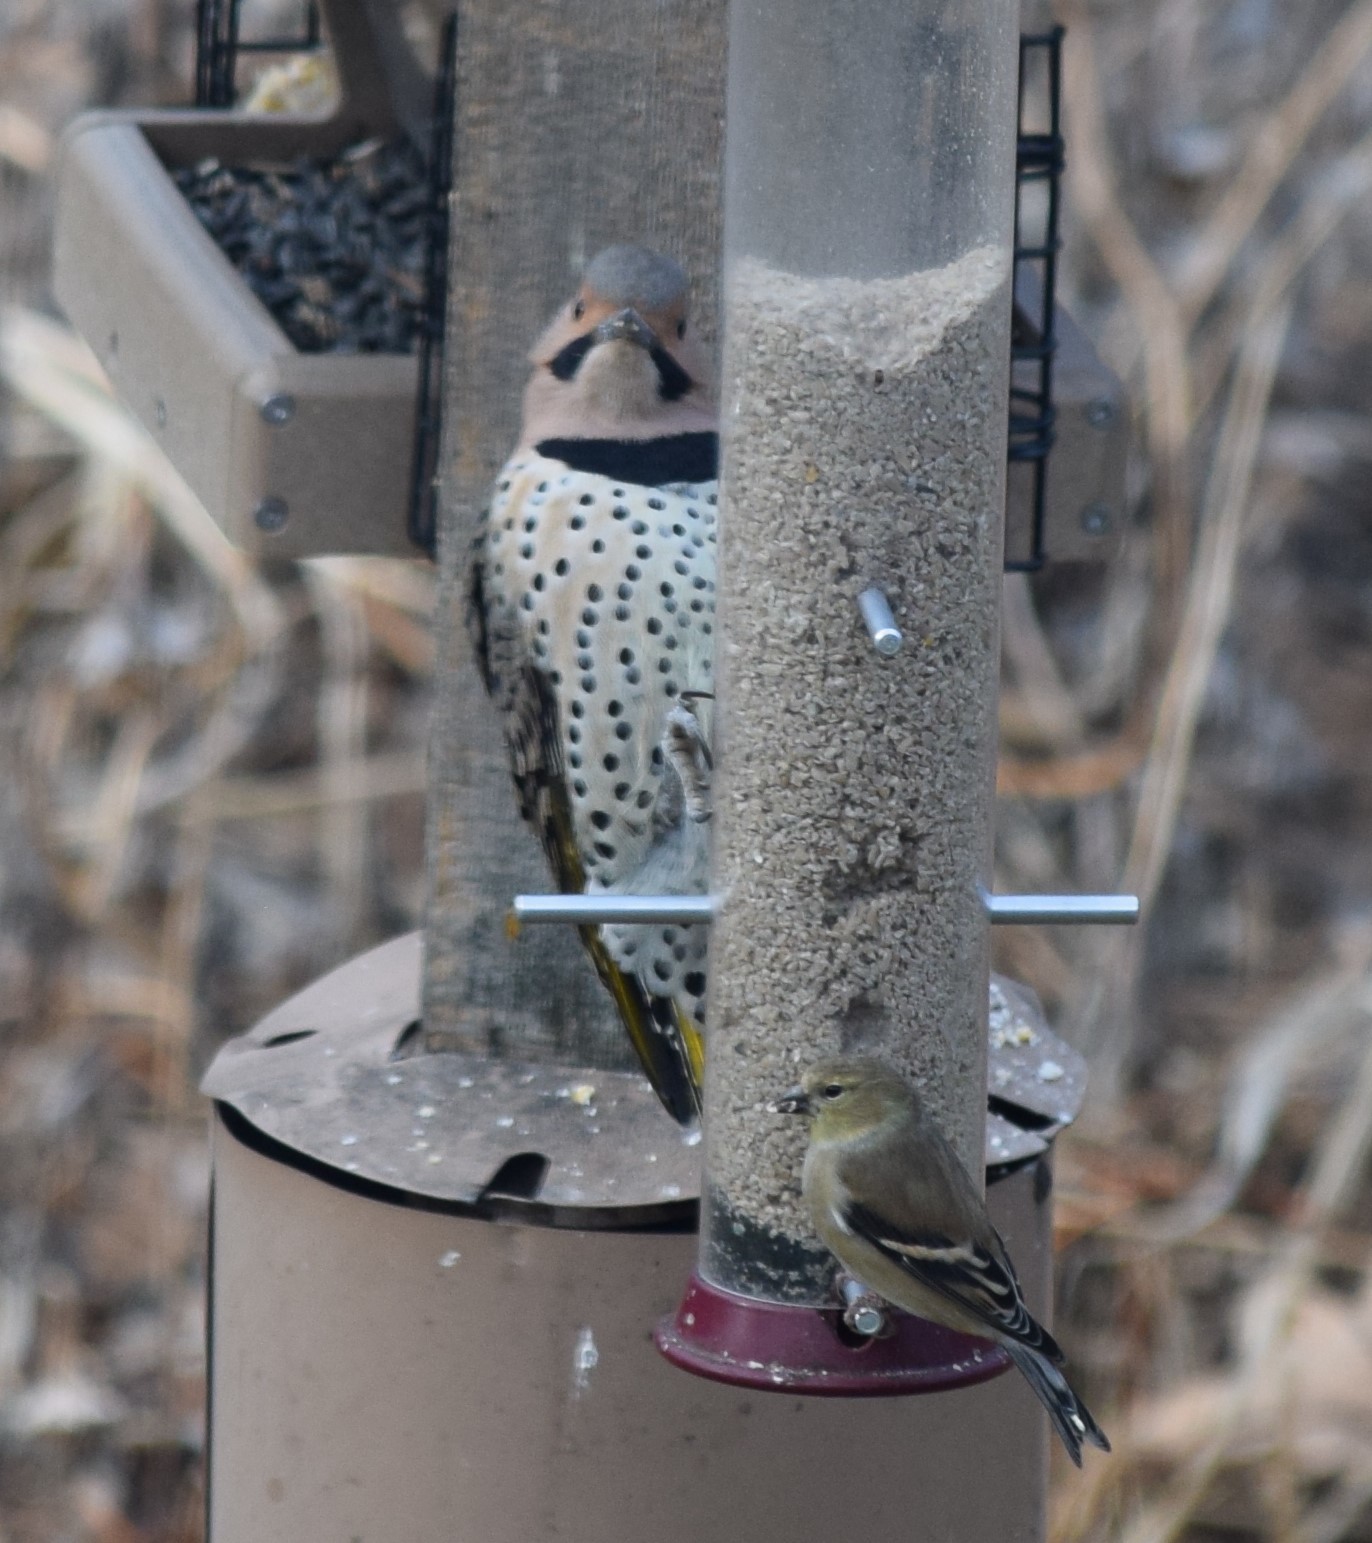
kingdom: Animalia
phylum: Chordata
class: Aves
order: Piciformes
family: Picidae
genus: Colaptes
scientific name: Colaptes auratus
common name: Northern flicker
